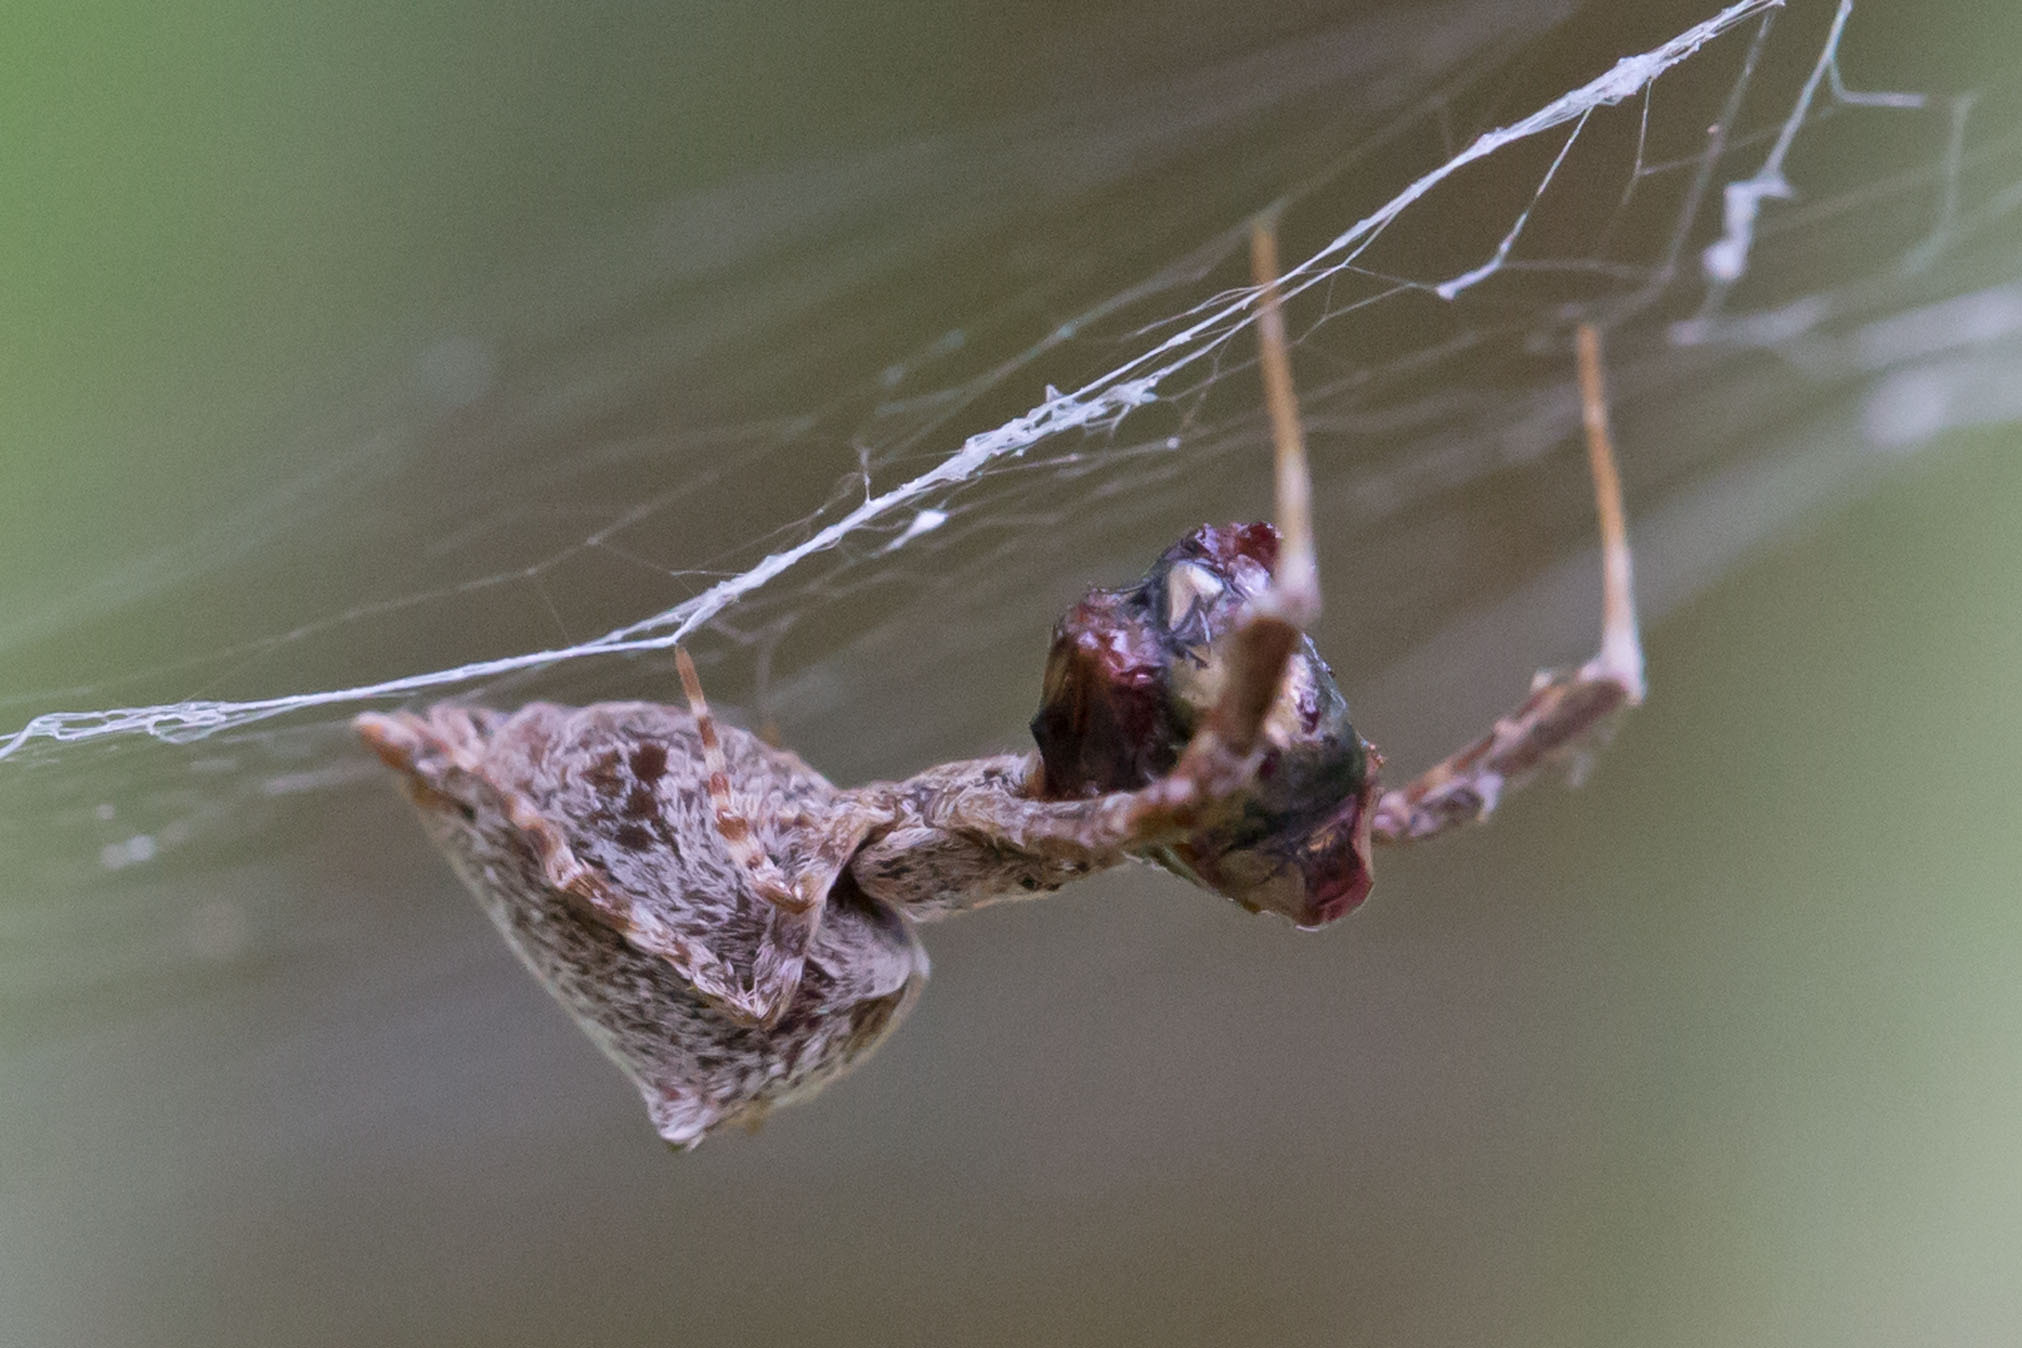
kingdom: Animalia
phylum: Arthropoda
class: Arachnida
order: Araneae
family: Uloboridae
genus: Uloborus
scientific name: Uloborus glomosus
